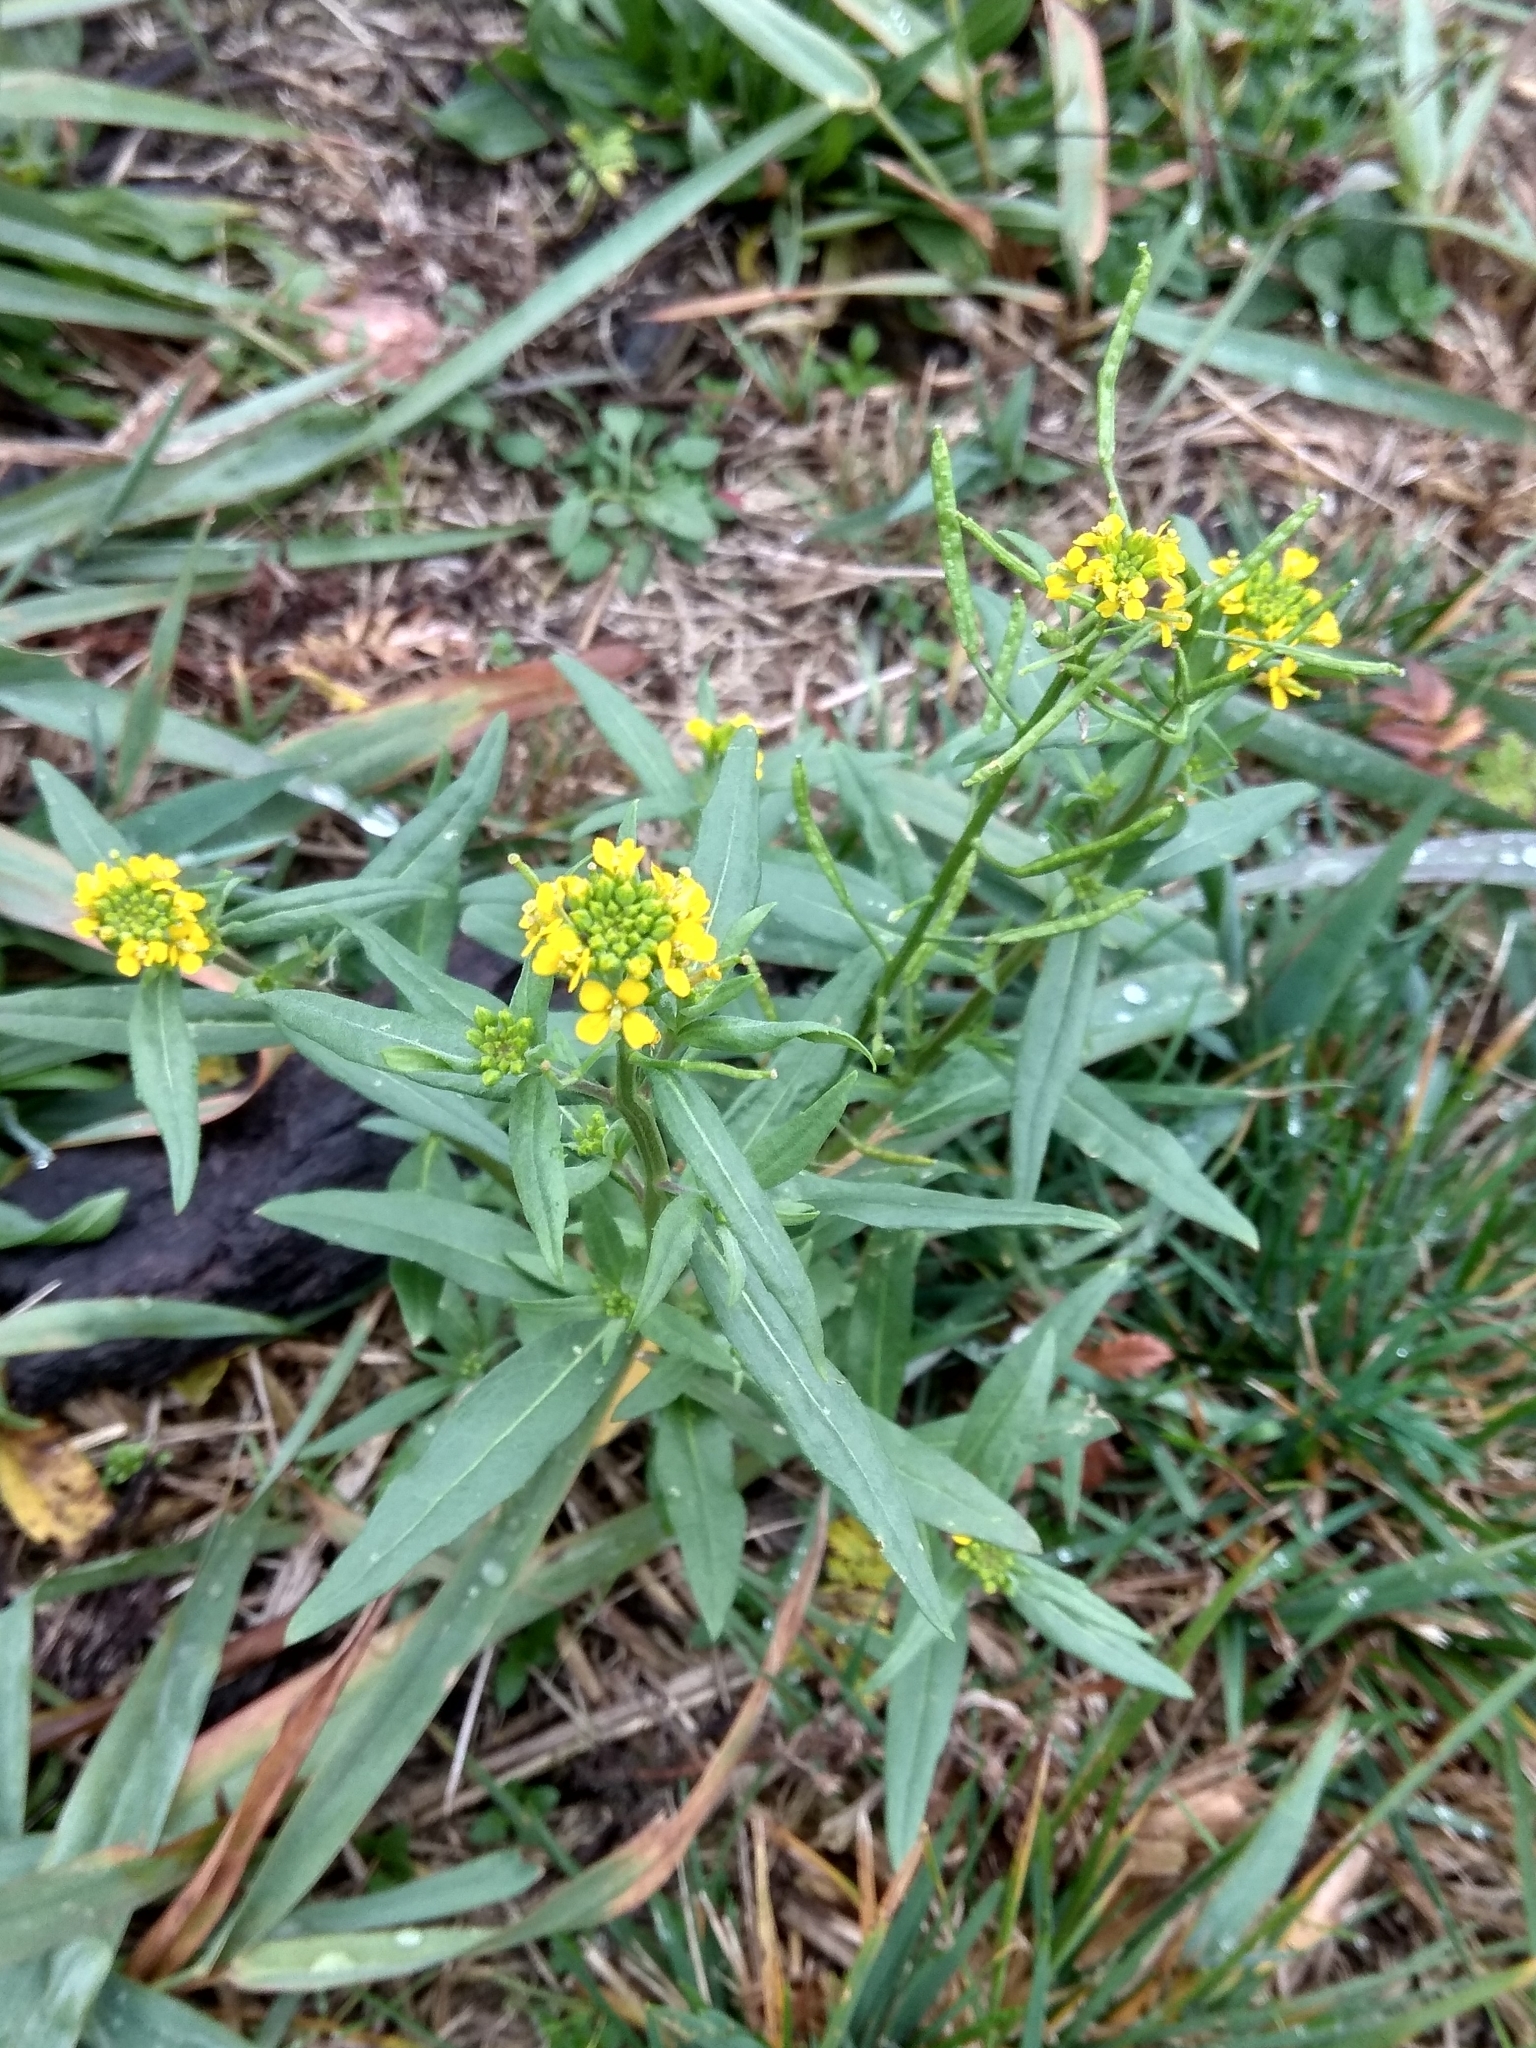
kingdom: Plantae
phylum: Tracheophyta
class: Magnoliopsida
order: Brassicales
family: Brassicaceae
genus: Erysimum
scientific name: Erysimum cheiranthoides
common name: Treacle mustard
